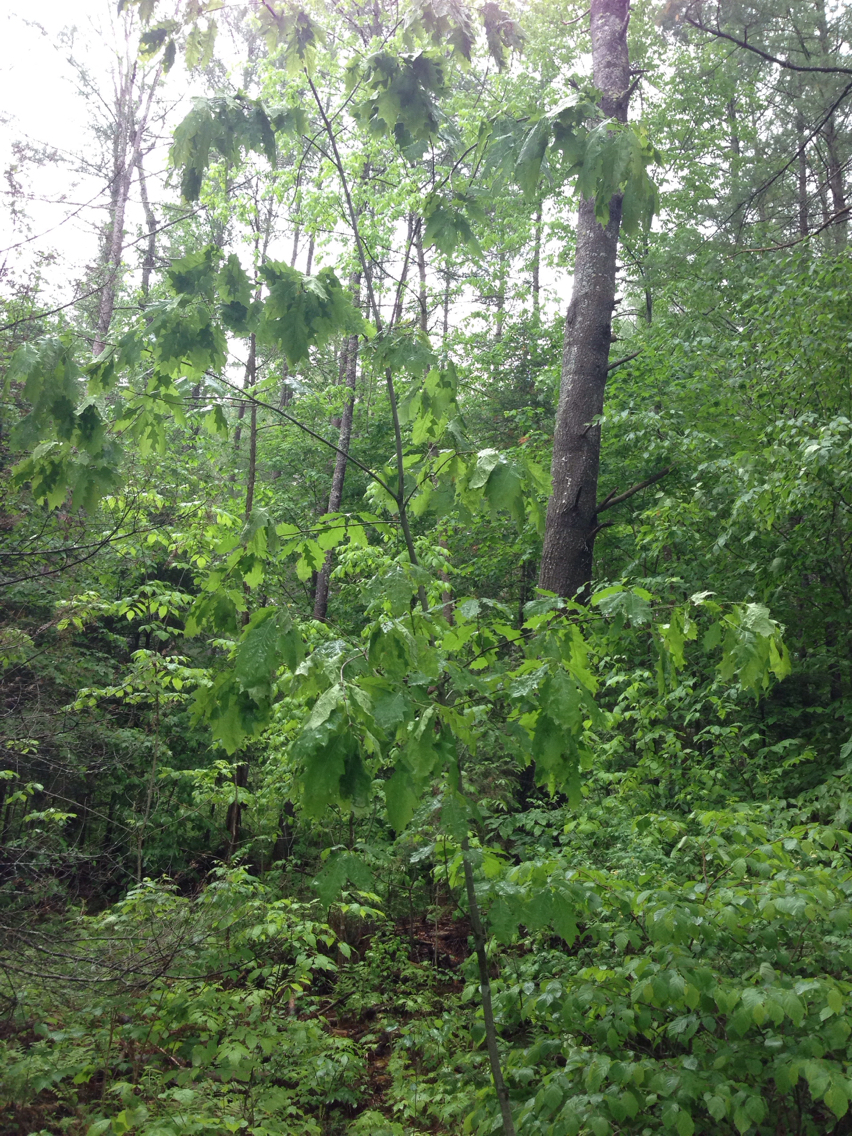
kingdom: Plantae
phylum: Tracheophyta
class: Magnoliopsida
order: Fagales
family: Fagaceae
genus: Quercus
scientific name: Quercus rubra
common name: Red oak
